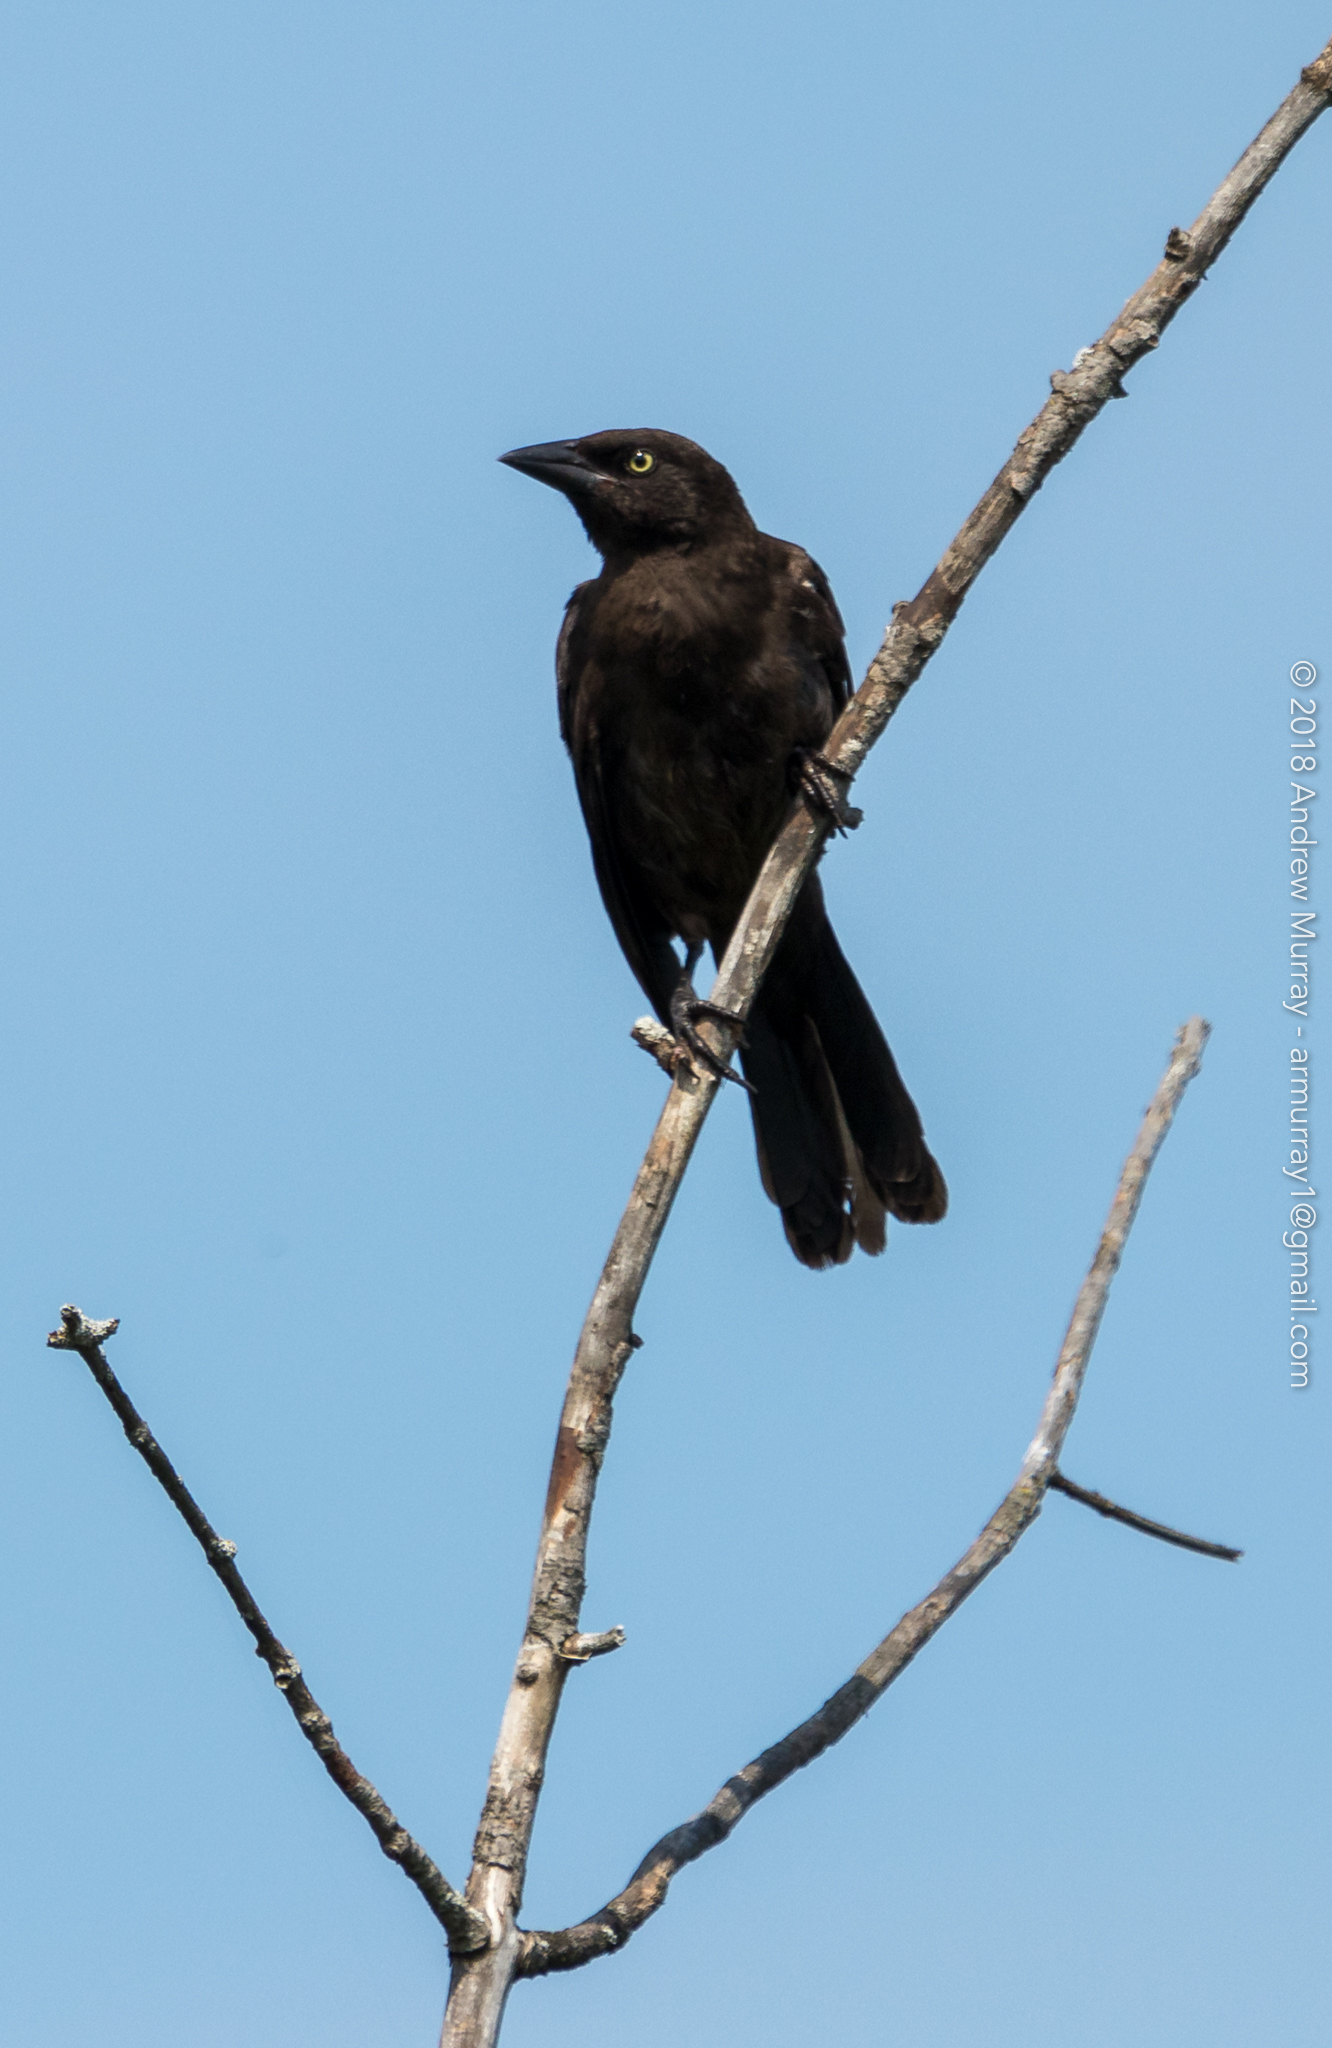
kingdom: Animalia
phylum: Chordata
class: Aves
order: Passeriformes
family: Icteridae
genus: Quiscalus
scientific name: Quiscalus quiscula
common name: Common grackle
